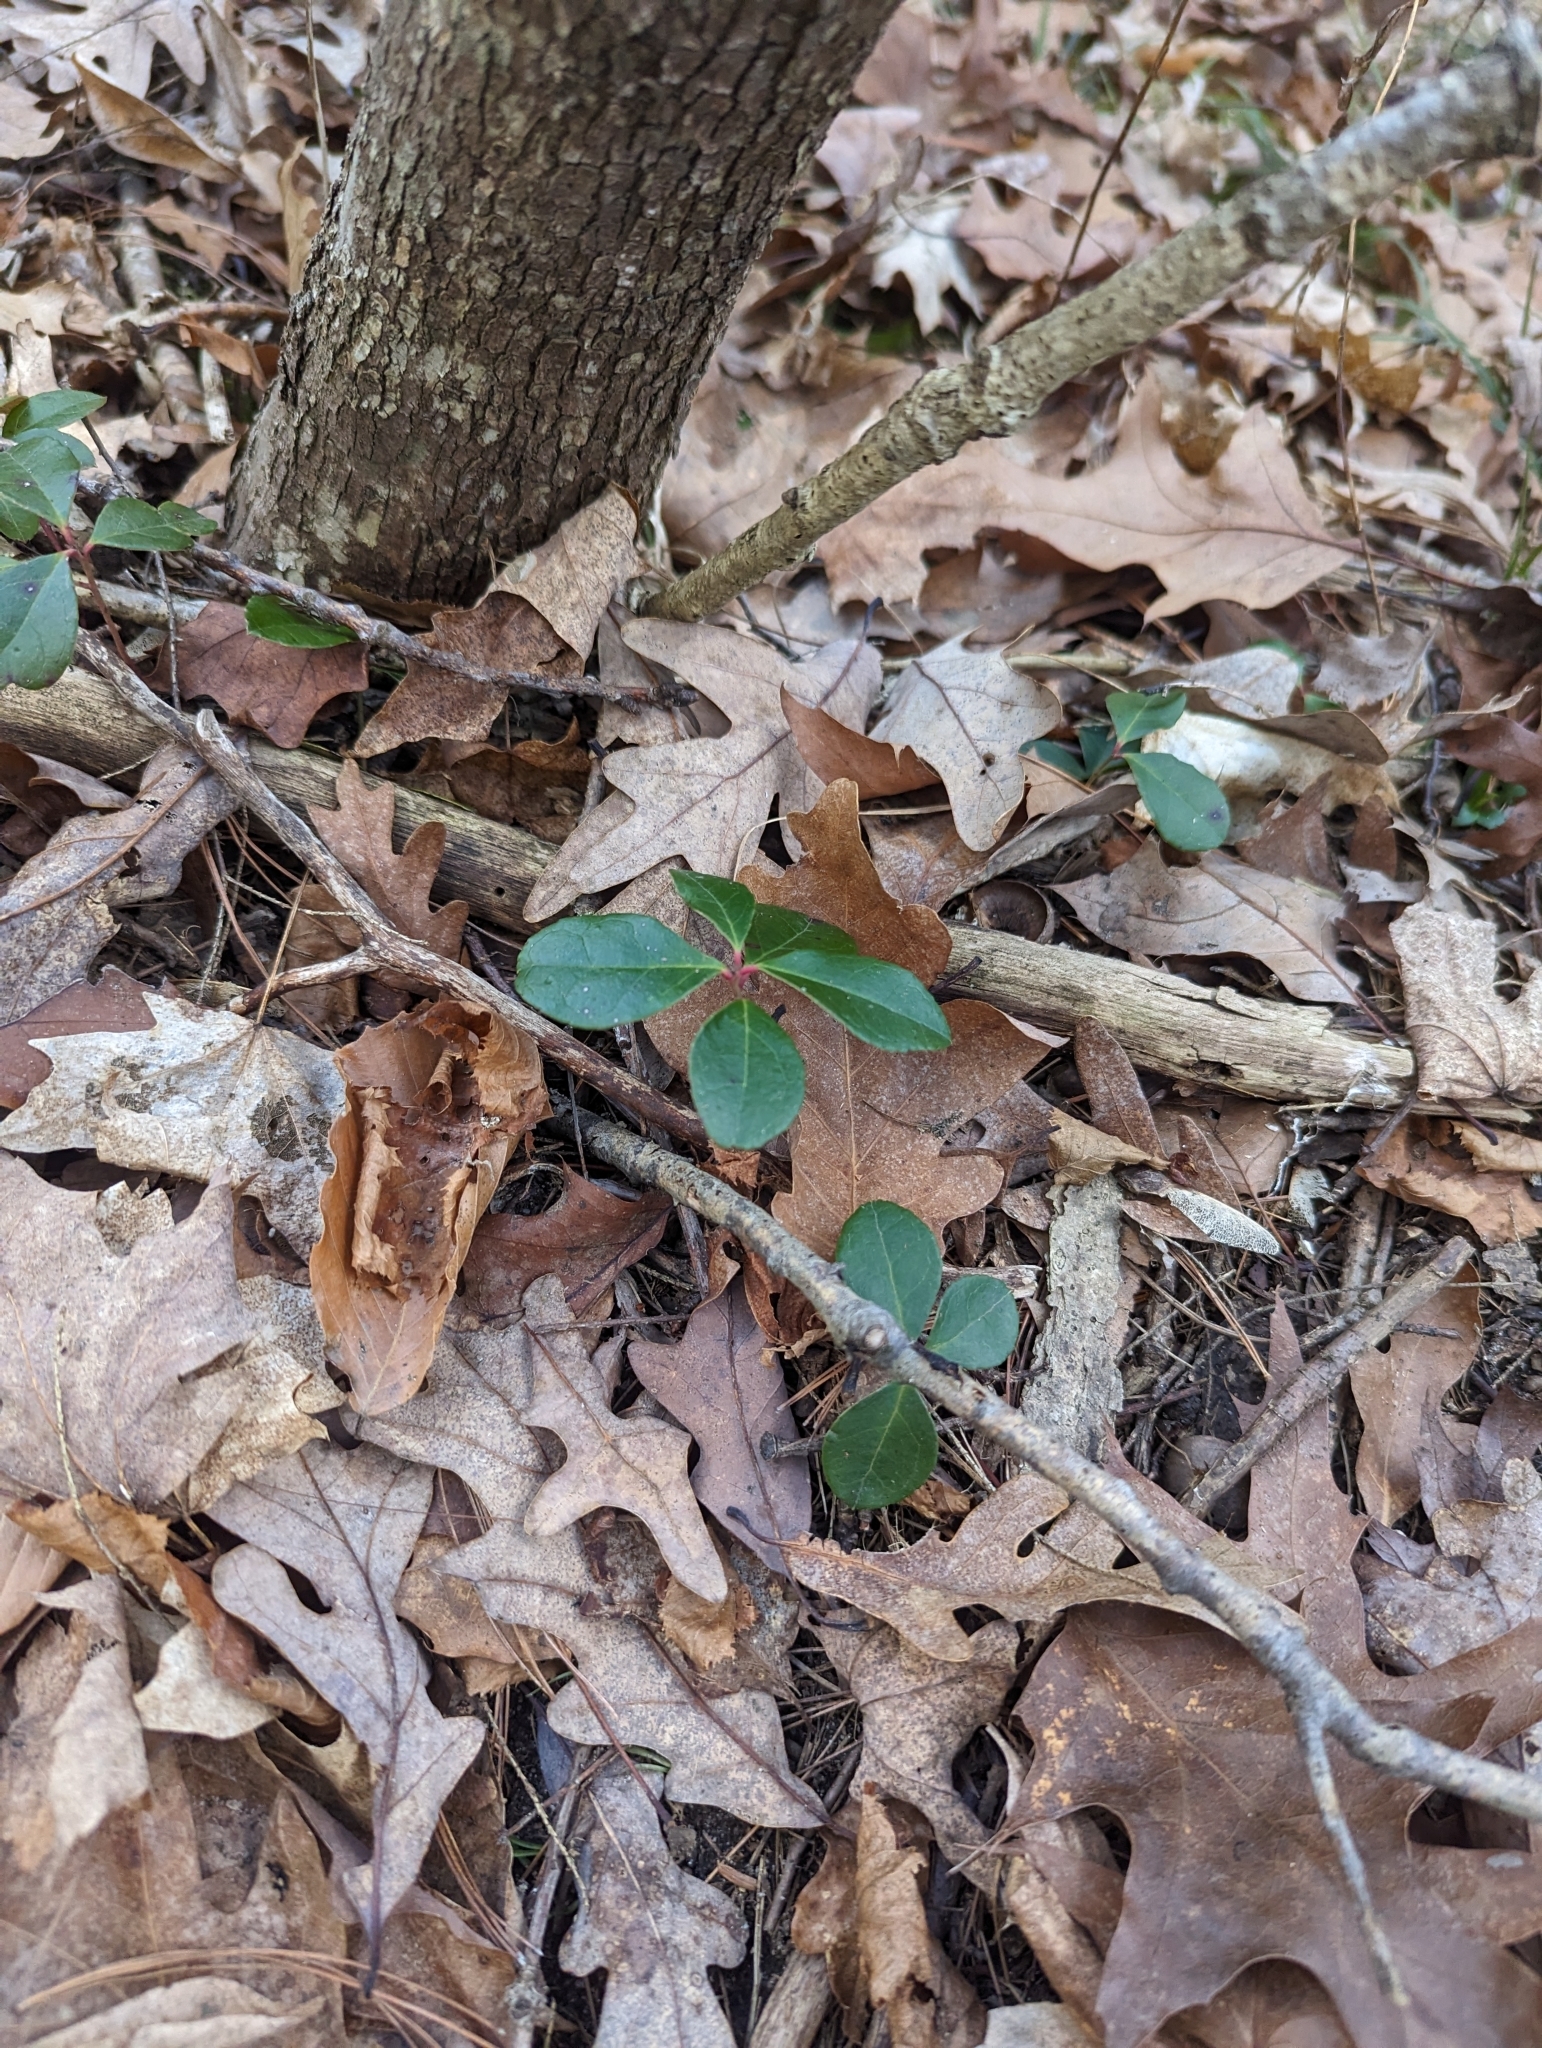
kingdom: Plantae
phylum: Tracheophyta
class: Magnoliopsida
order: Ericales
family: Ericaceae
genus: Gaultheria
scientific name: Gaultheria procumbens
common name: Checkerberry
